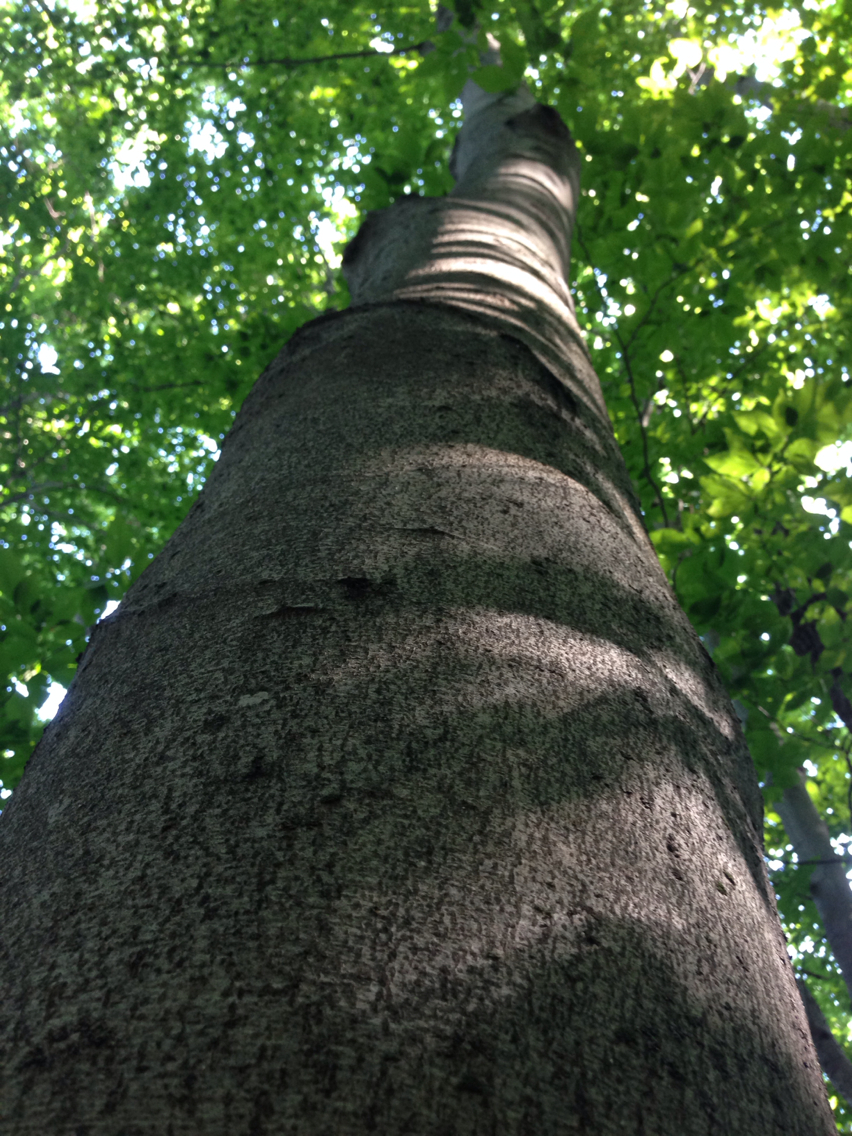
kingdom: Plantae
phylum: Tracheophyta
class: Magnoliopsida
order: Fagales
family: Fagaceae
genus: Fagus
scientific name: Fagus grandifolia
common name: American beech
